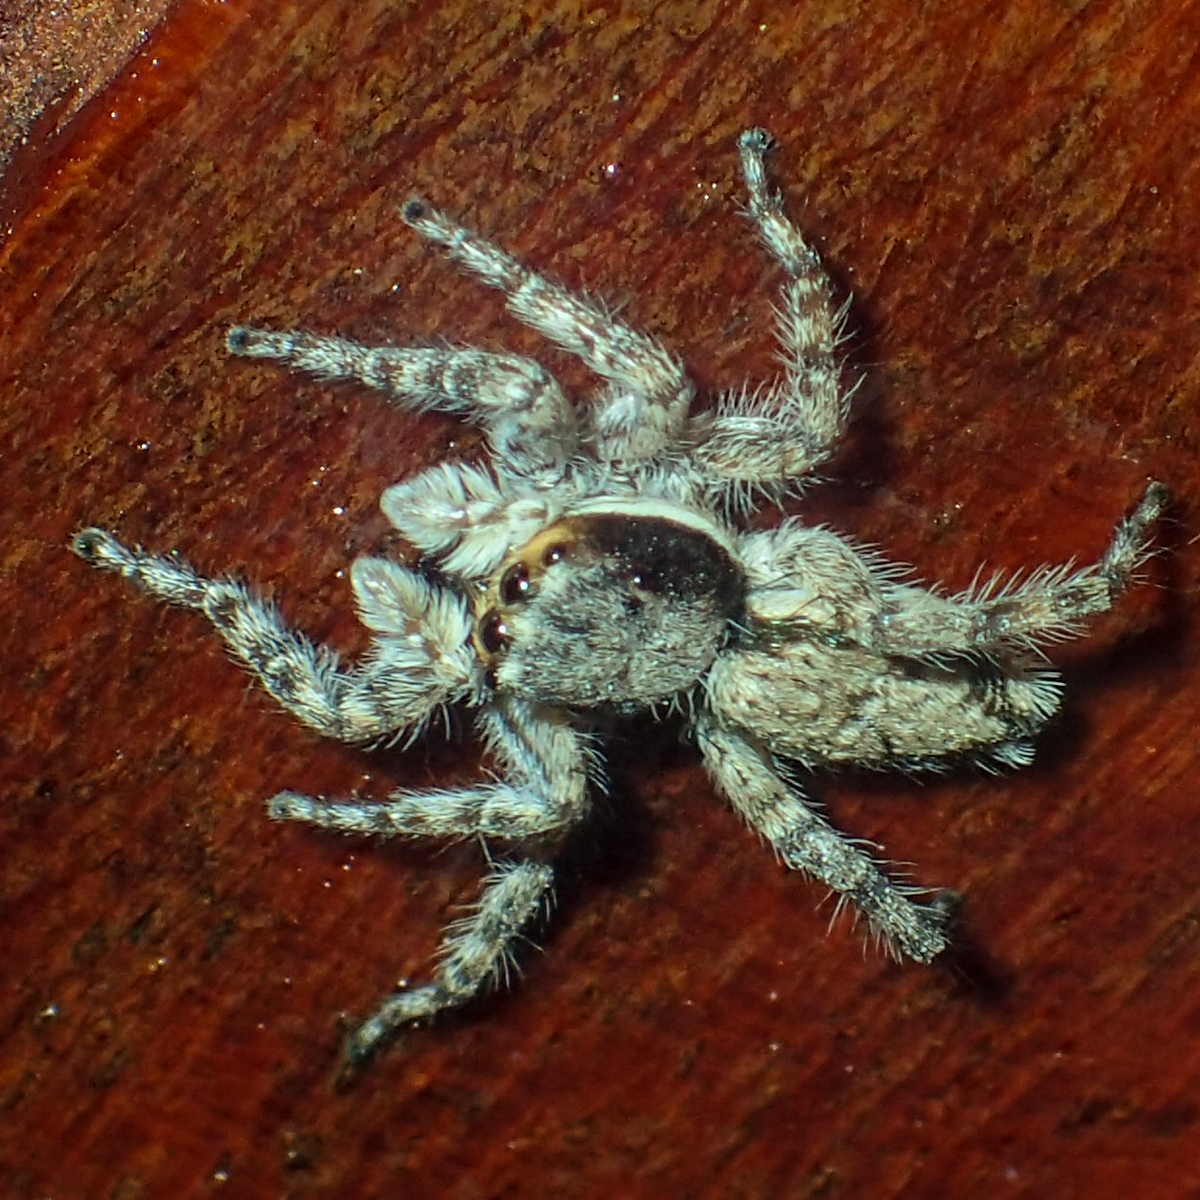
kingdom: Animalia
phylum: Arthropoda
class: Arachnida
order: Araneae
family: Salticidae
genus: Menemerus
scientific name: Menemerus bivittatus
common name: Gray wall jumper
